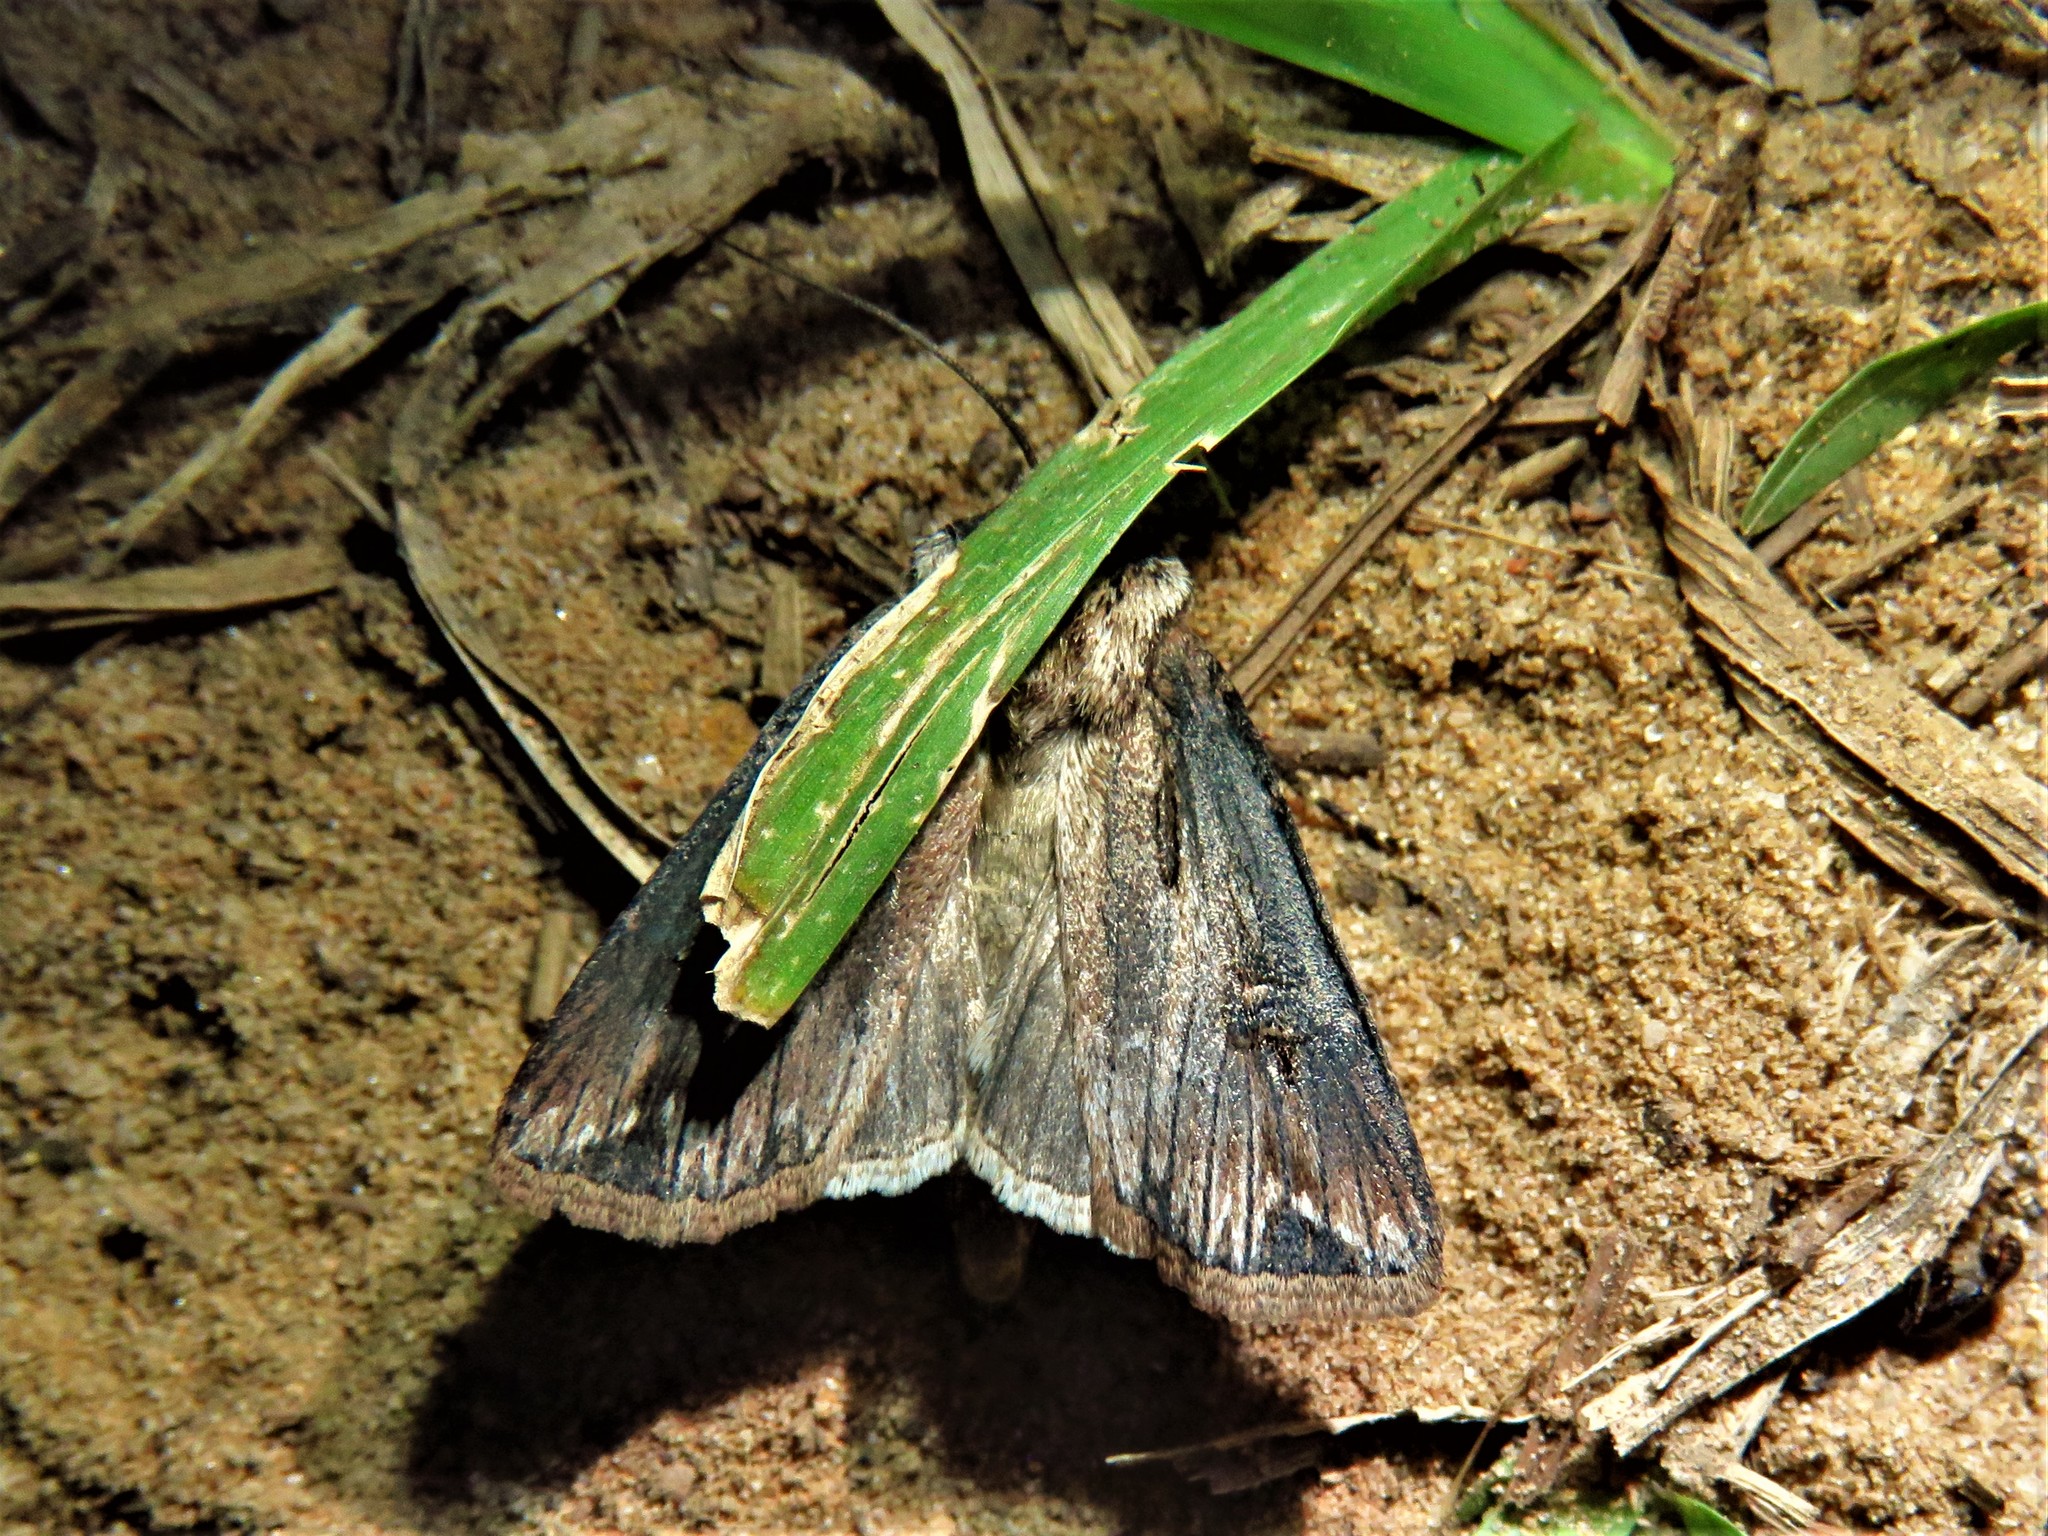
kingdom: Animalia
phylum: Arthropoda
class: Insecta
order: Lepidoptera
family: Noctuidae
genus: Agrotis
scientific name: Agrotis ipsilon
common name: Dark sword-grass
